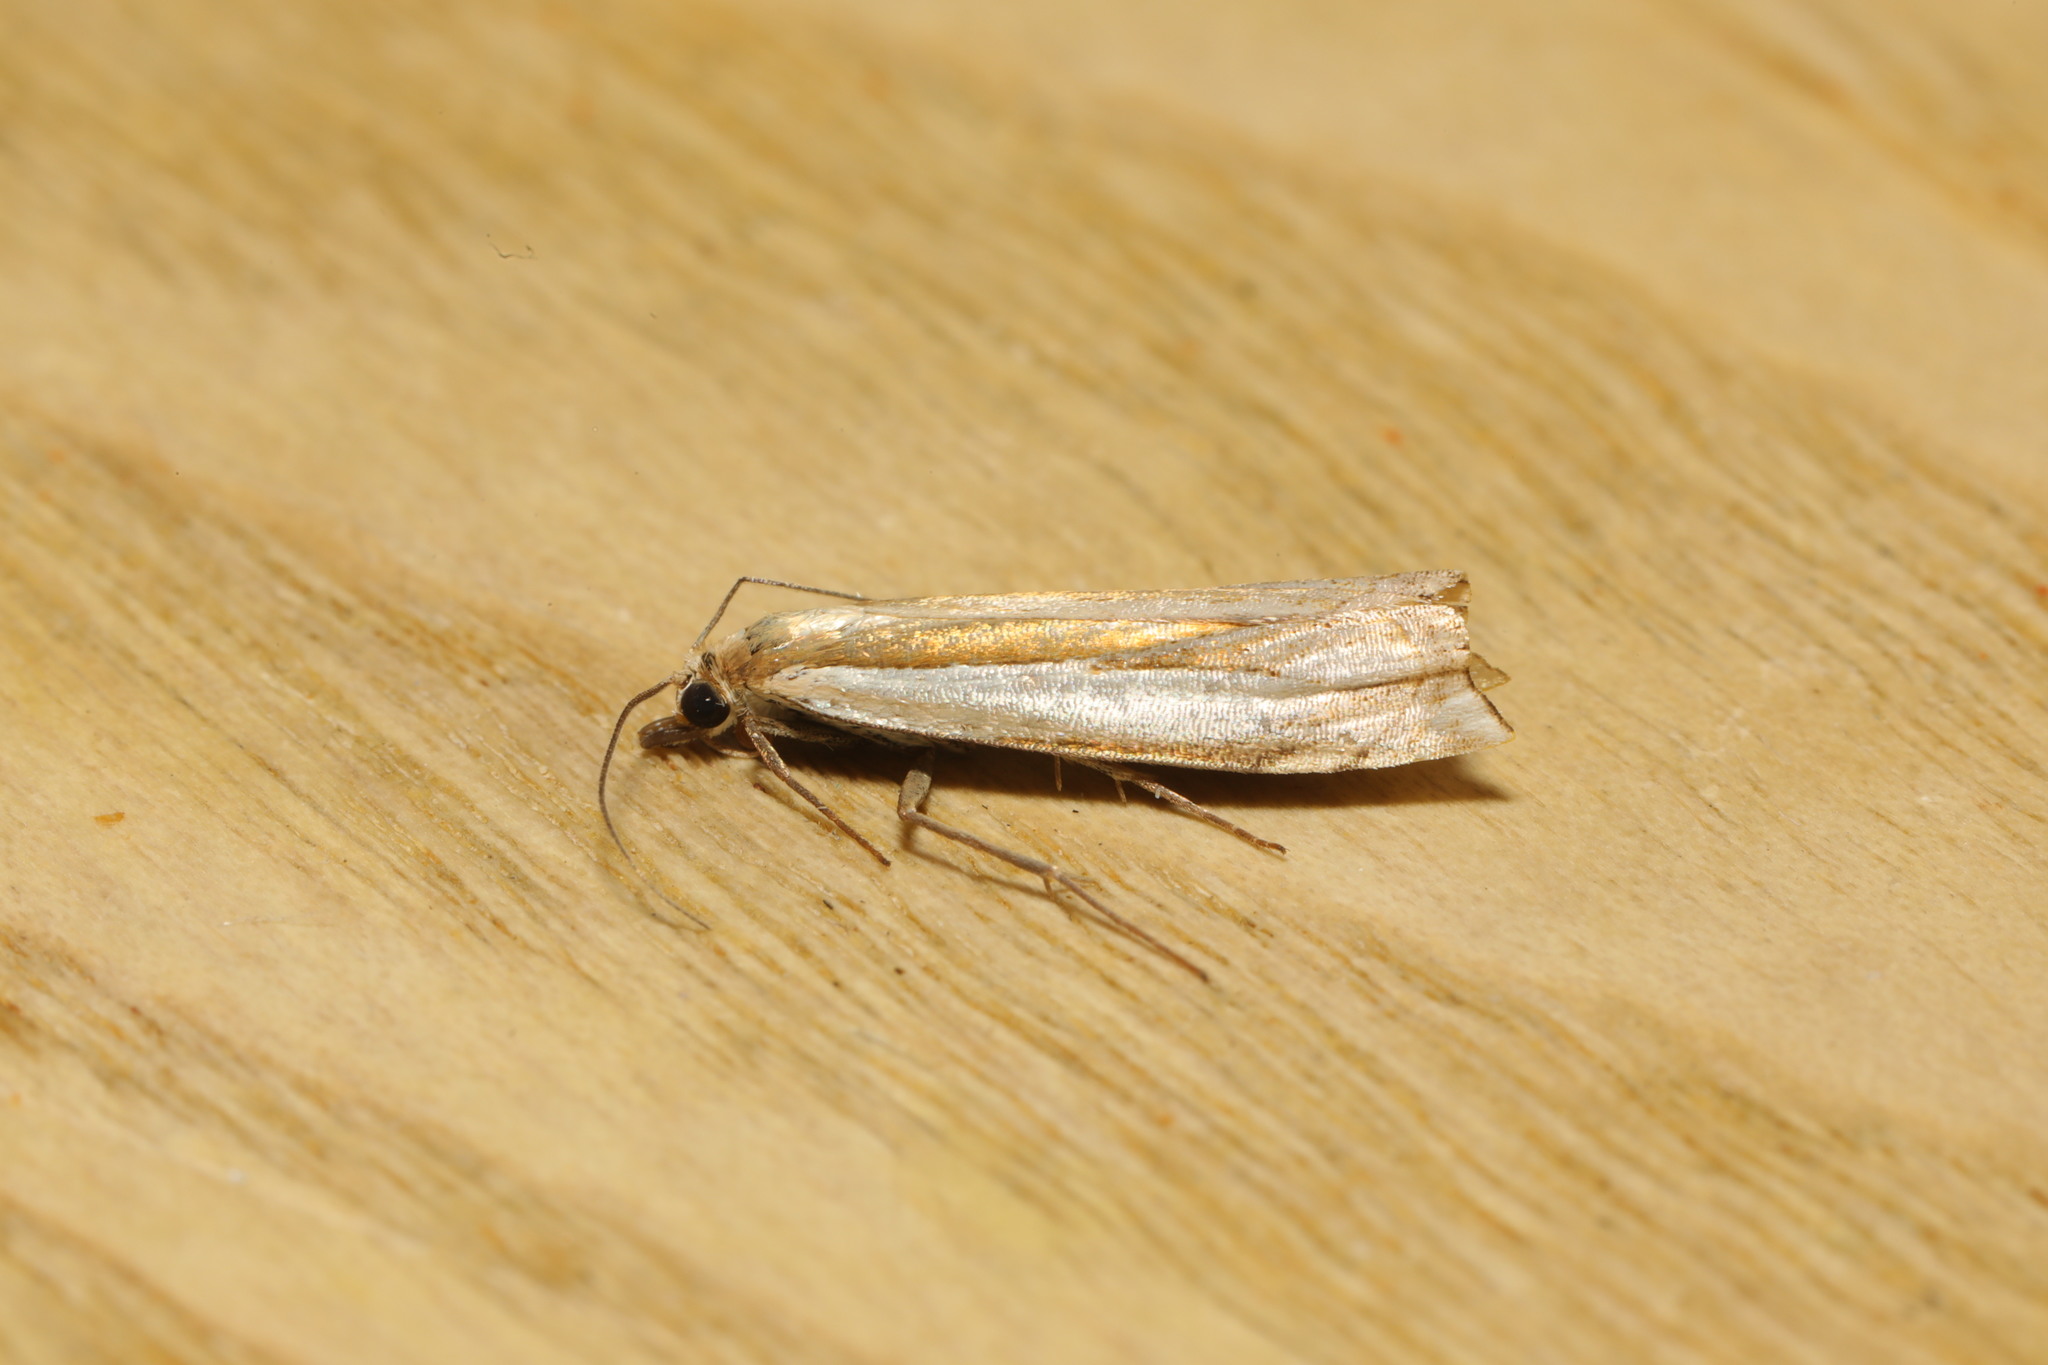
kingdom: Animalia
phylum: Arthropoda
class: Insecta
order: Lepidoptera
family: Crambidae
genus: Crambus
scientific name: Crambus pascuella
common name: Inlaid grass-veneer
